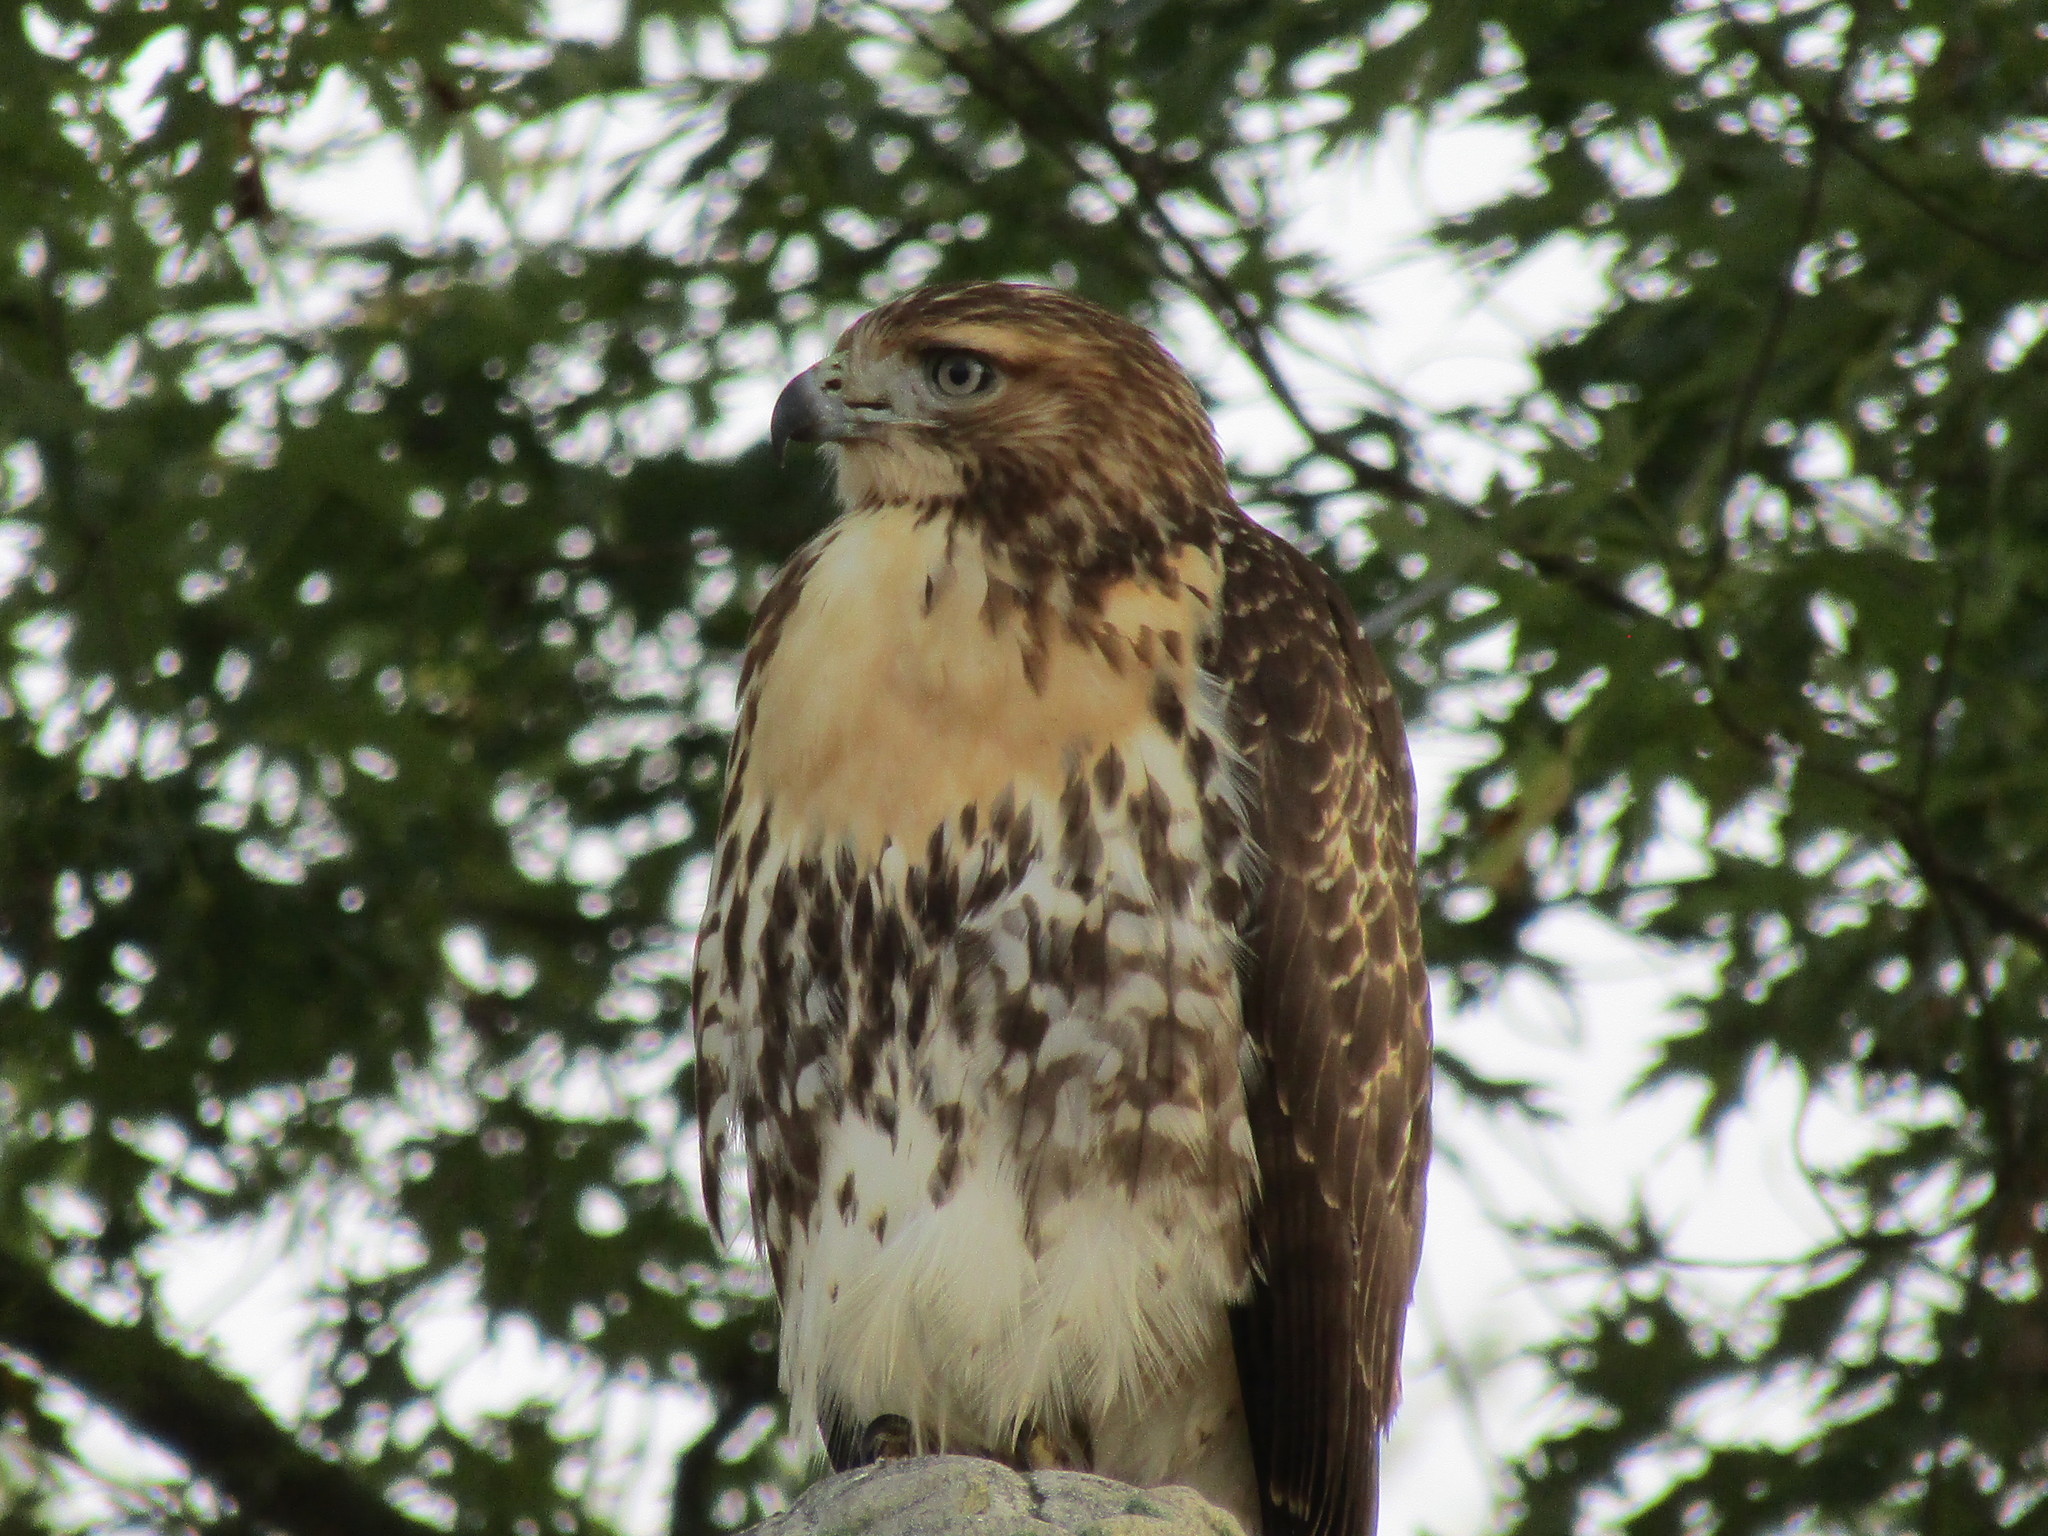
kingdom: Animalia
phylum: Chordata
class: Aves
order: Accipitriformes
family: Accipitridae
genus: Buteo
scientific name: Buteo jamaicensis
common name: Red-tailed hawk
